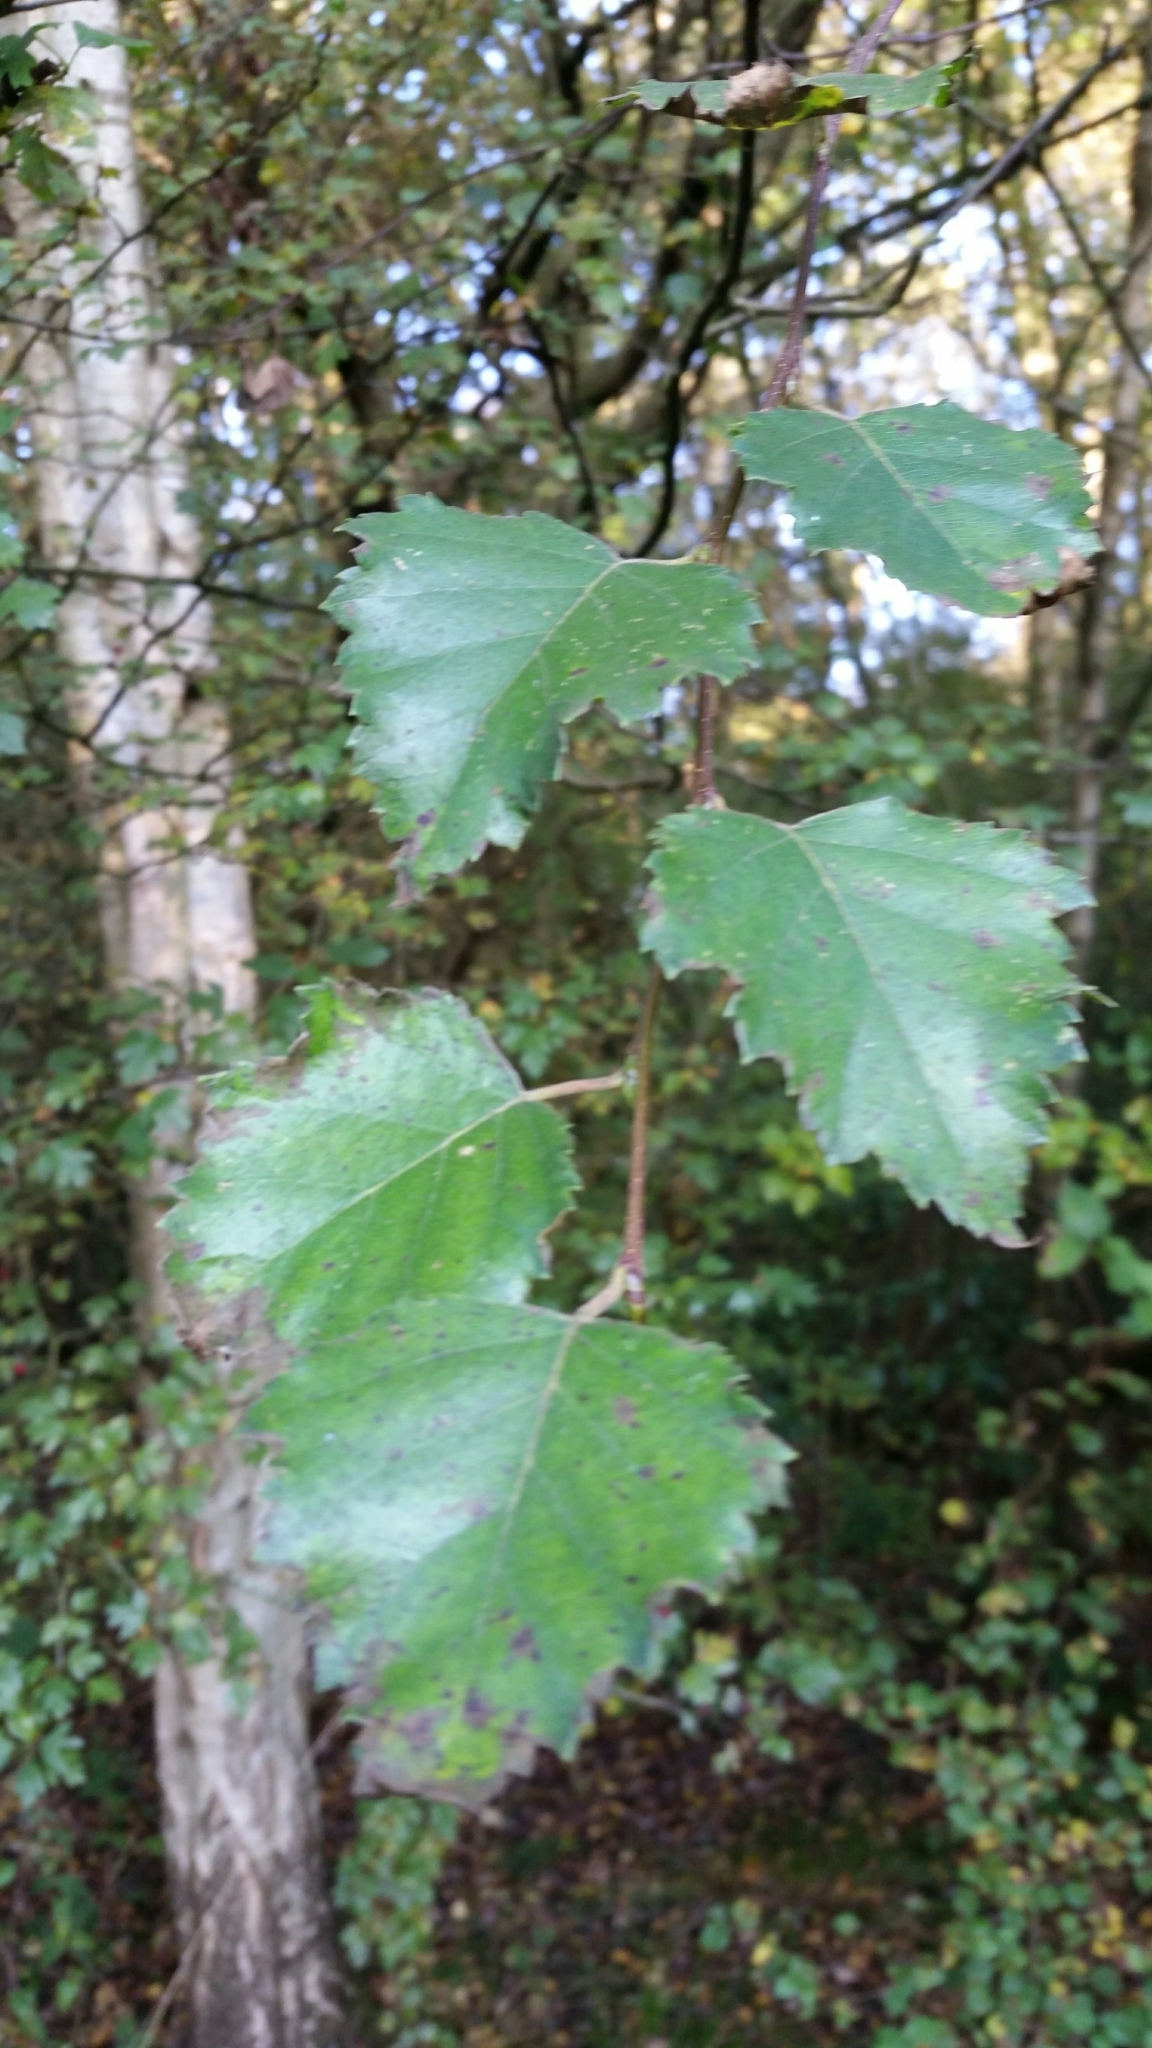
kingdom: Plantae
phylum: Tracheophyta
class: Magnoliopsida
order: Fagales
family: Betulaceae
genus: Betula
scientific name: Betula pendula
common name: Silver birch
